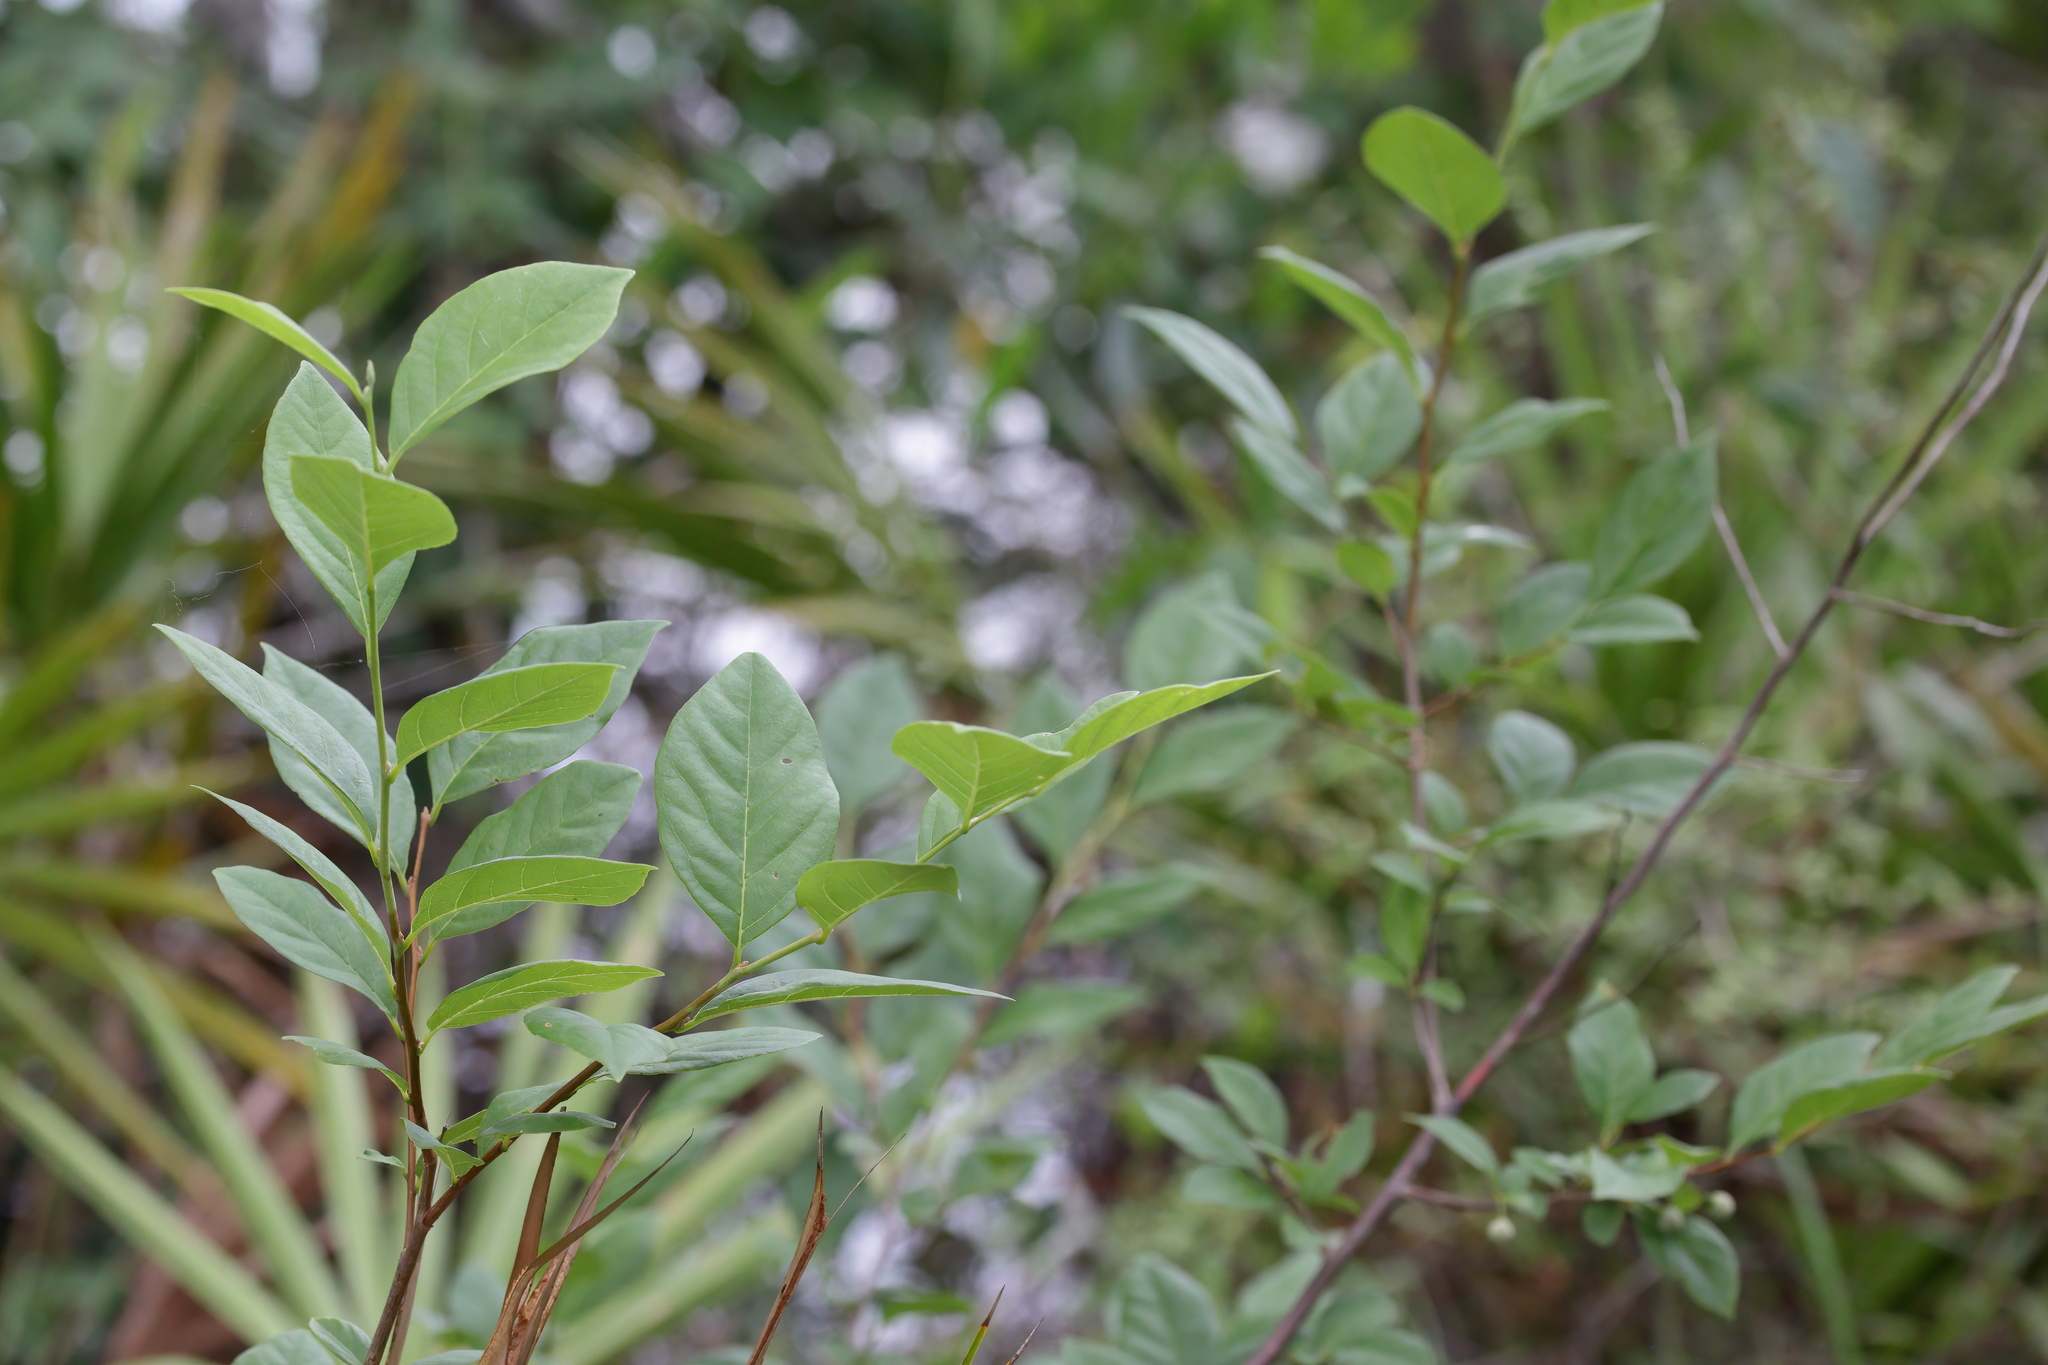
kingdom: Plantae
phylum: Tracheophyta
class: Magnoliopsida
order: Ericales
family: Styracaceae
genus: Styrax
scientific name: Styrax americanus
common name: American snowbell
